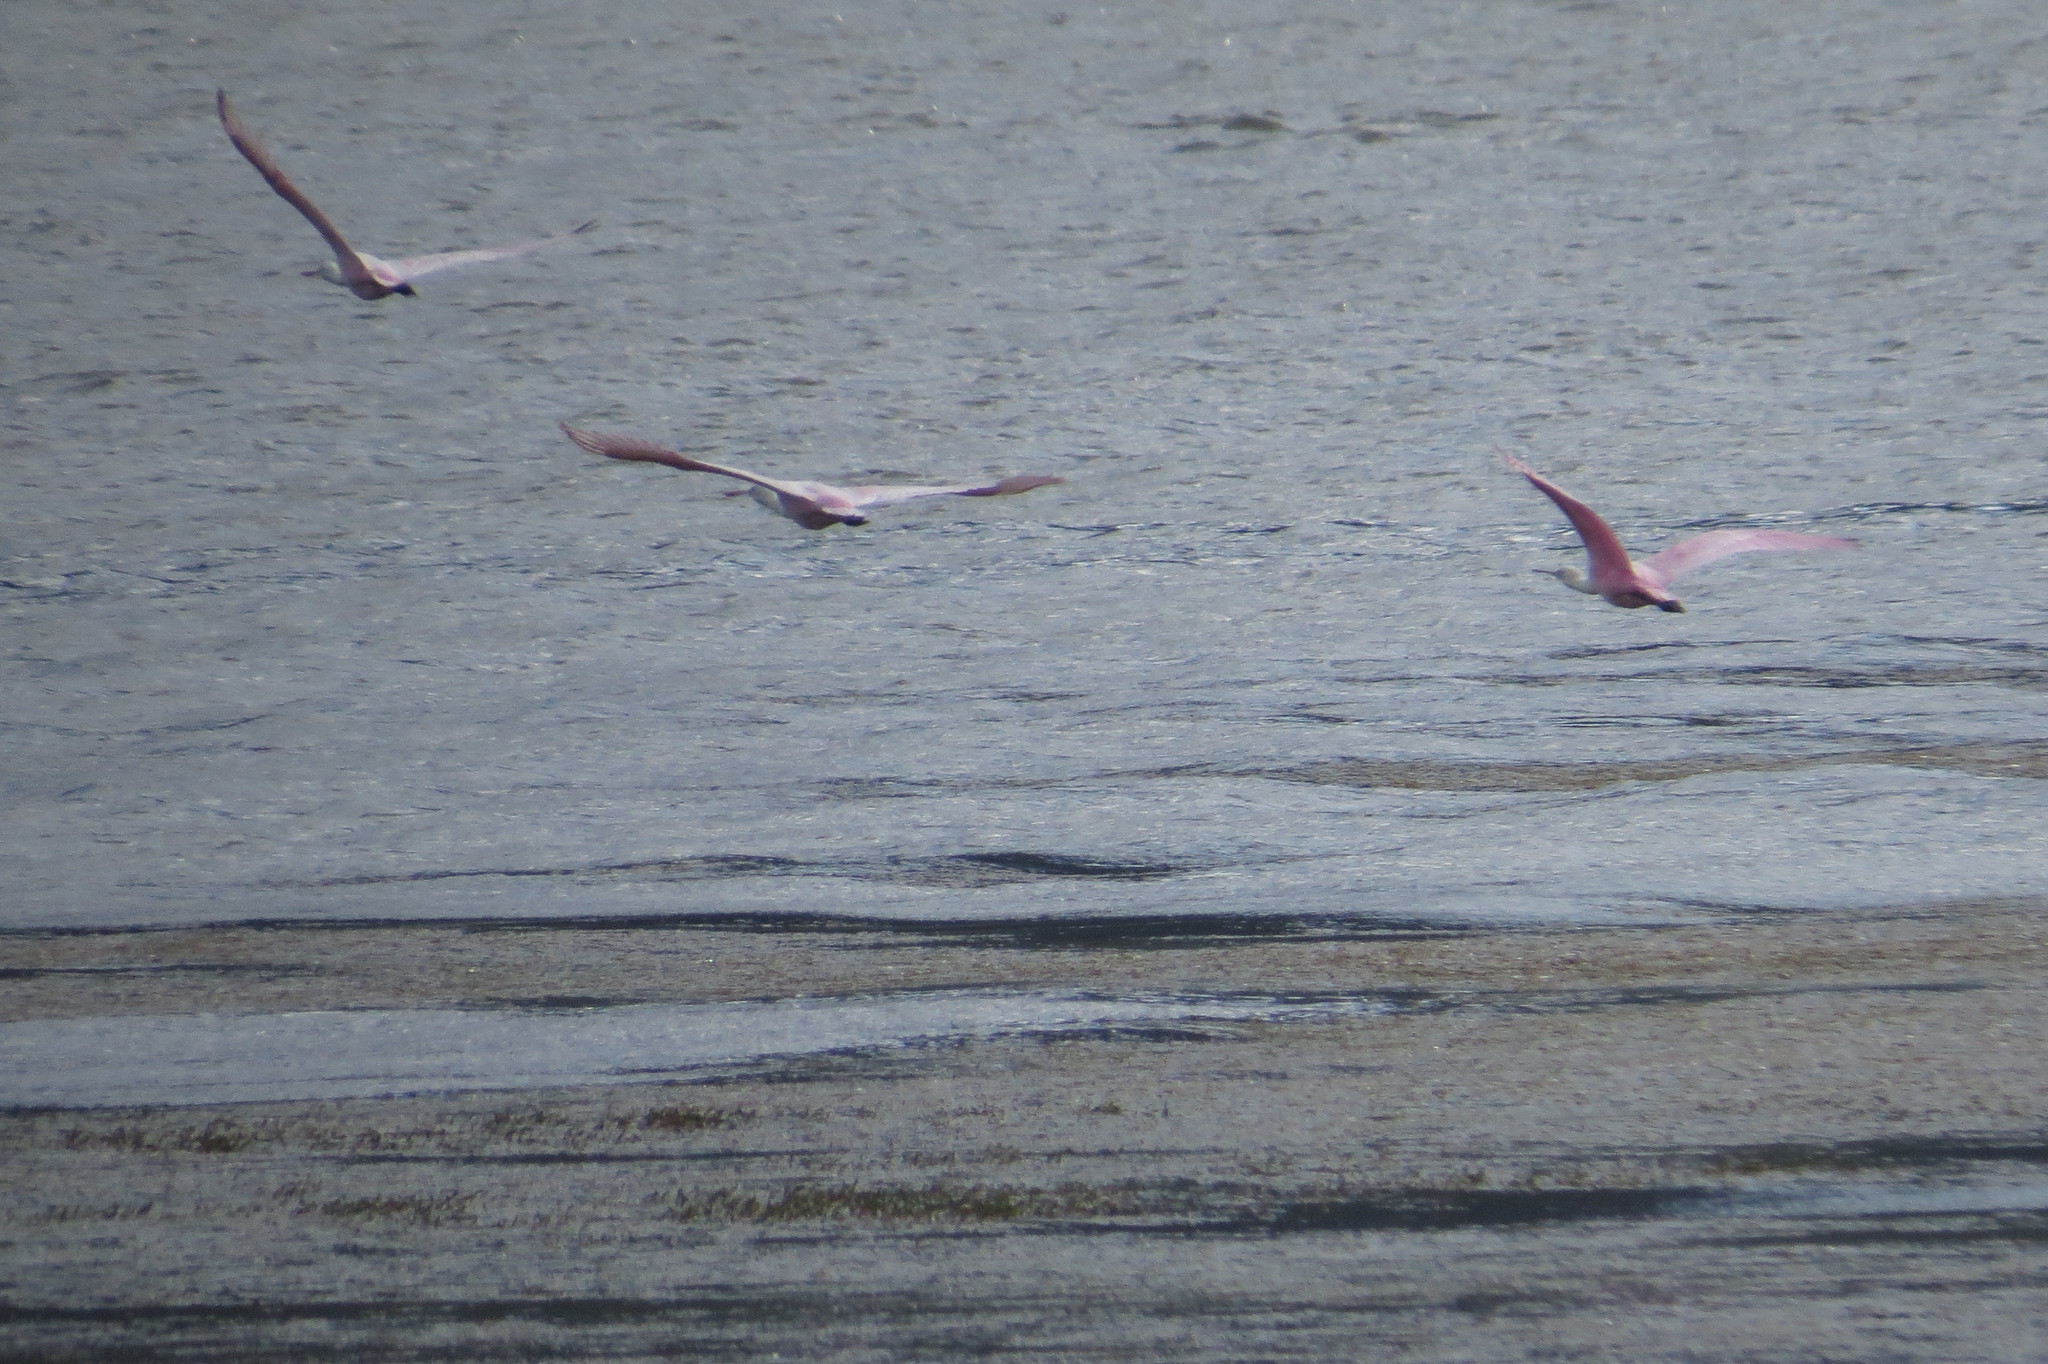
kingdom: Animalia
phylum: Chordata
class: Aves
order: Pelecaniformes
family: Threskiornithidae
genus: Platalea
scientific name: Platalea ajaja
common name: Roseate spoonbill
